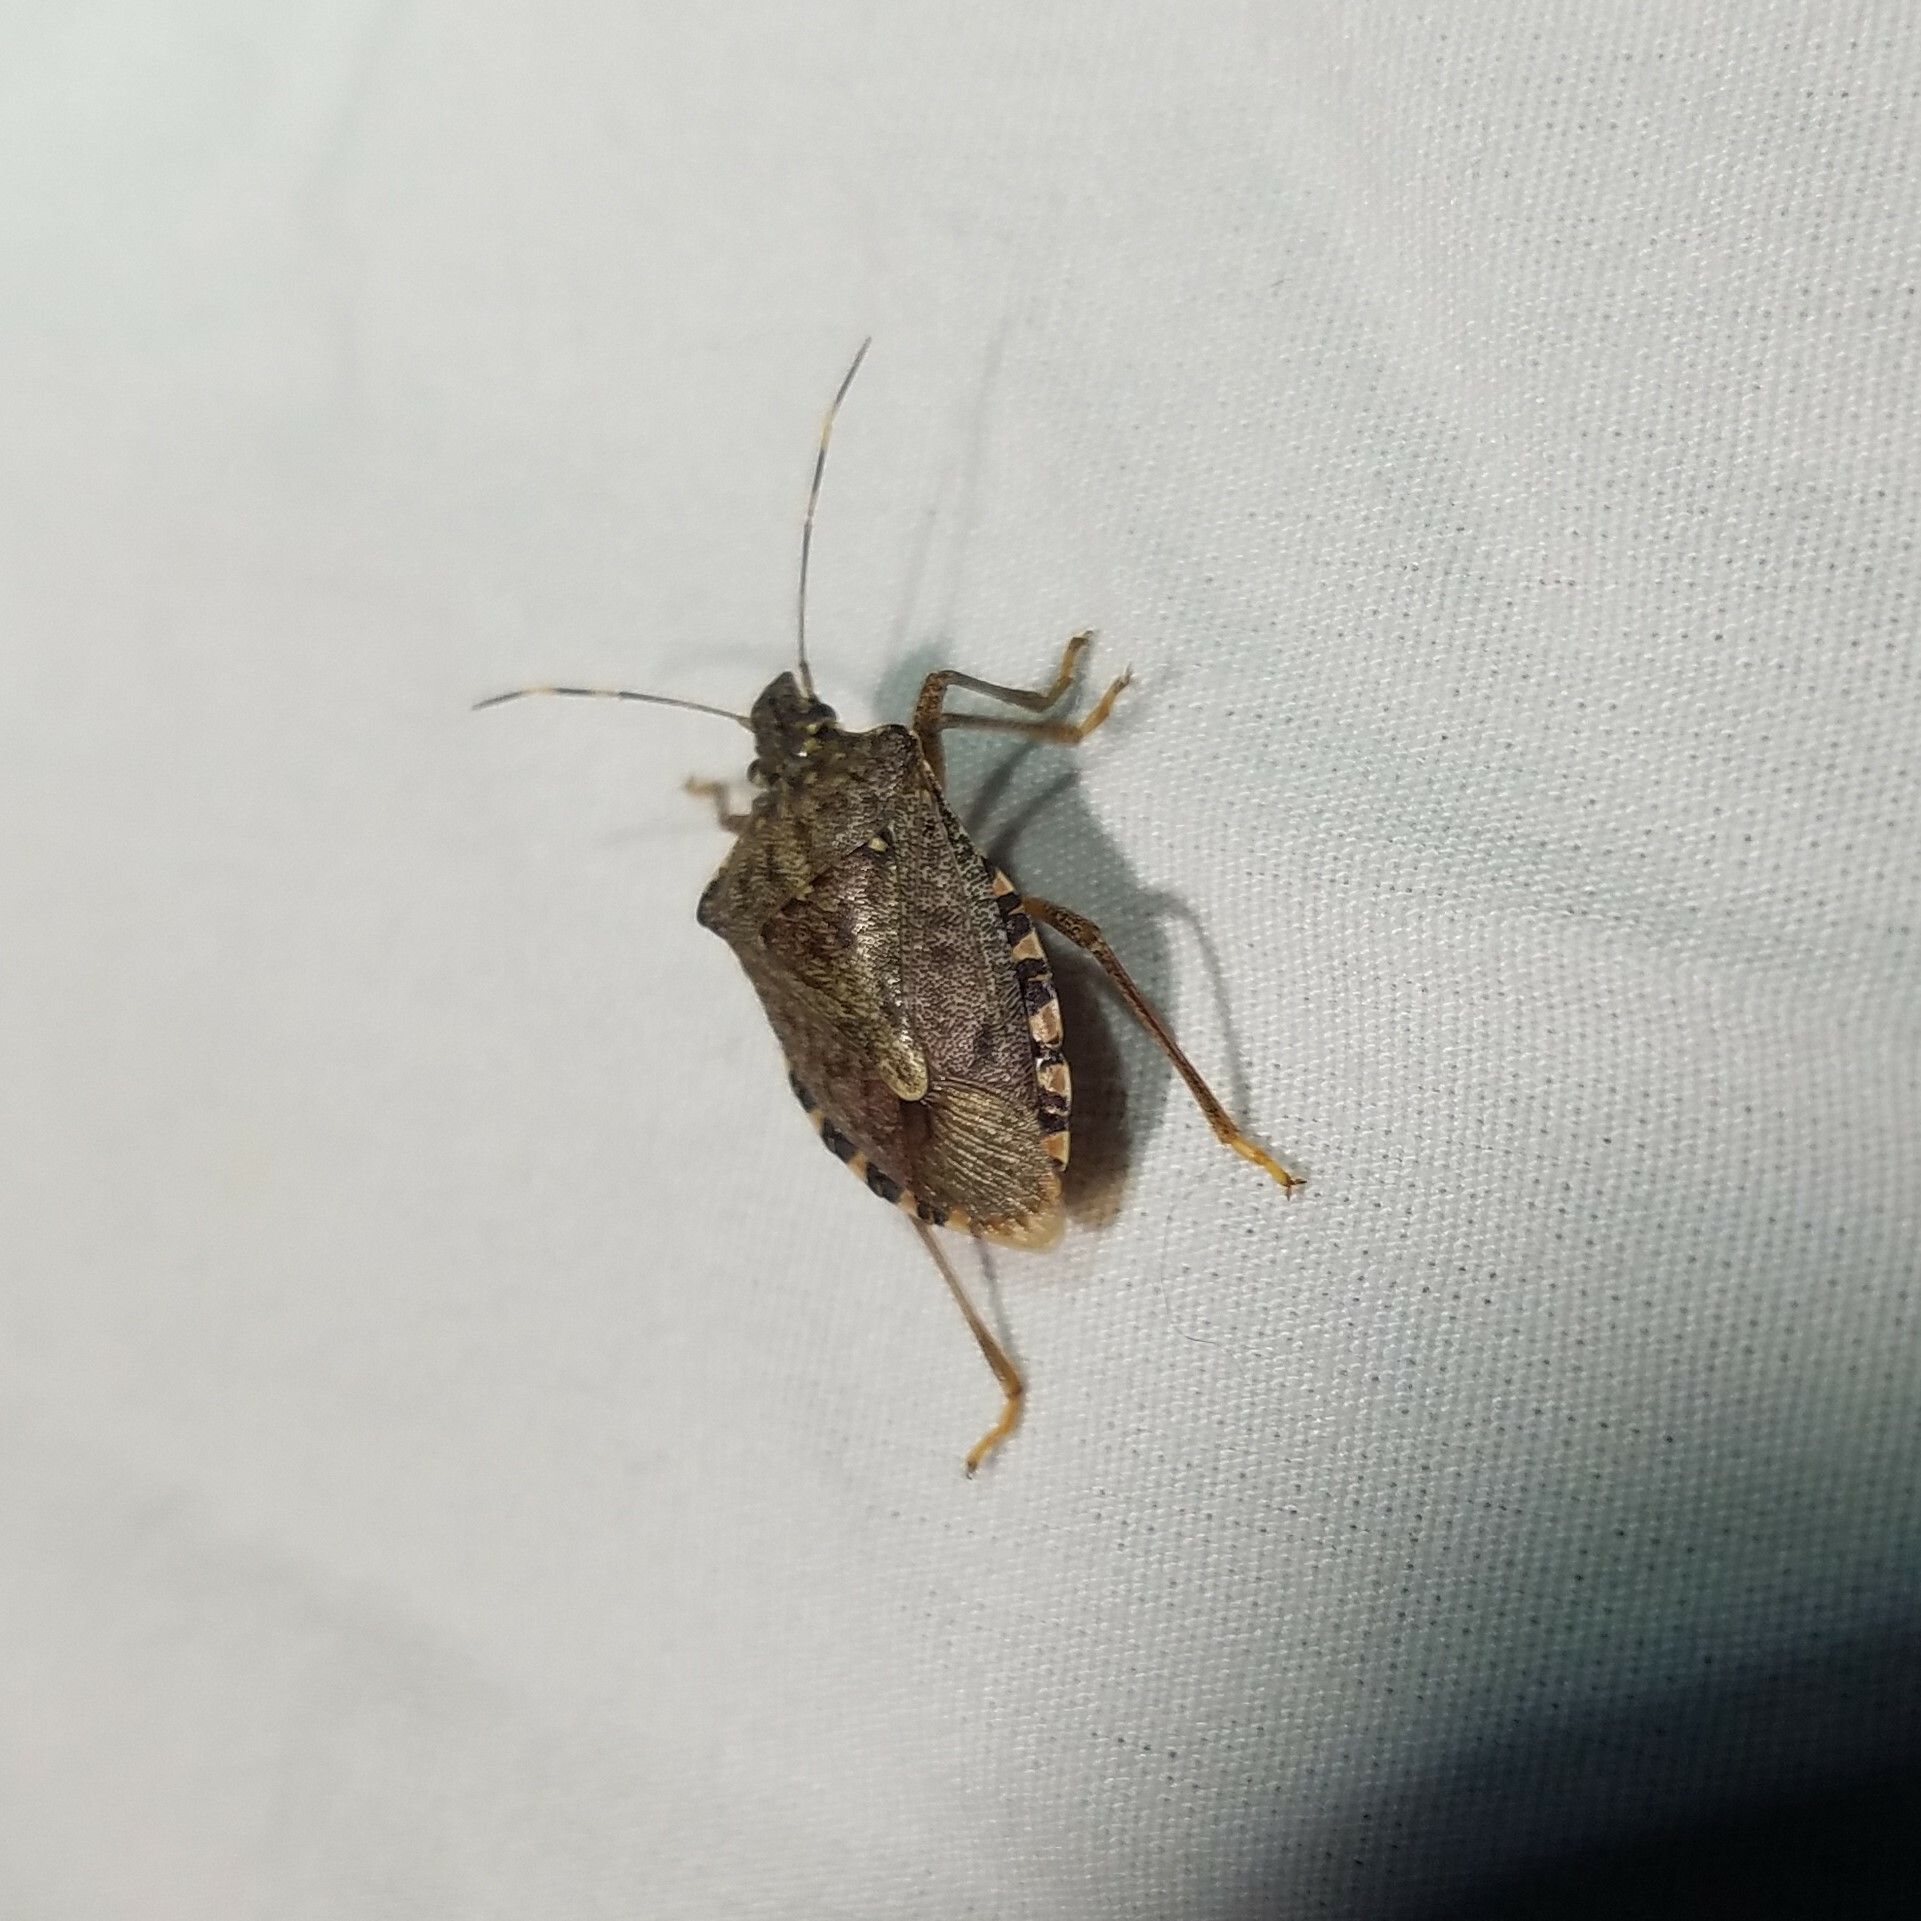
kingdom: Animalia
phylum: Arthropoda
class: Insecta
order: Hemiptera
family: Pentatomidae
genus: Halyomorpha
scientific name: Halyomorpha halys
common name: Brown marmorated stink bug
